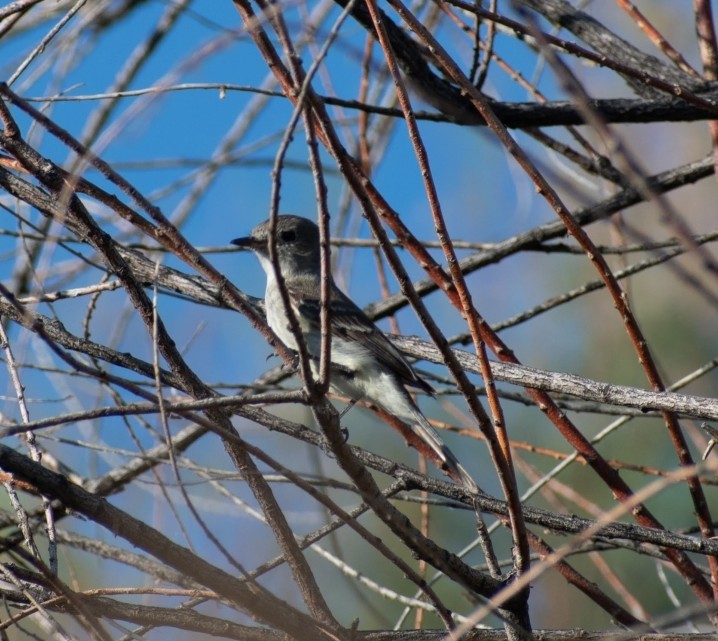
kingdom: Animalia
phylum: Chordata
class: Aves
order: Passeriformes
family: Tyrannidae
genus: Empidonax
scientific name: Empidonax traillii
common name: Willow flycatcher
